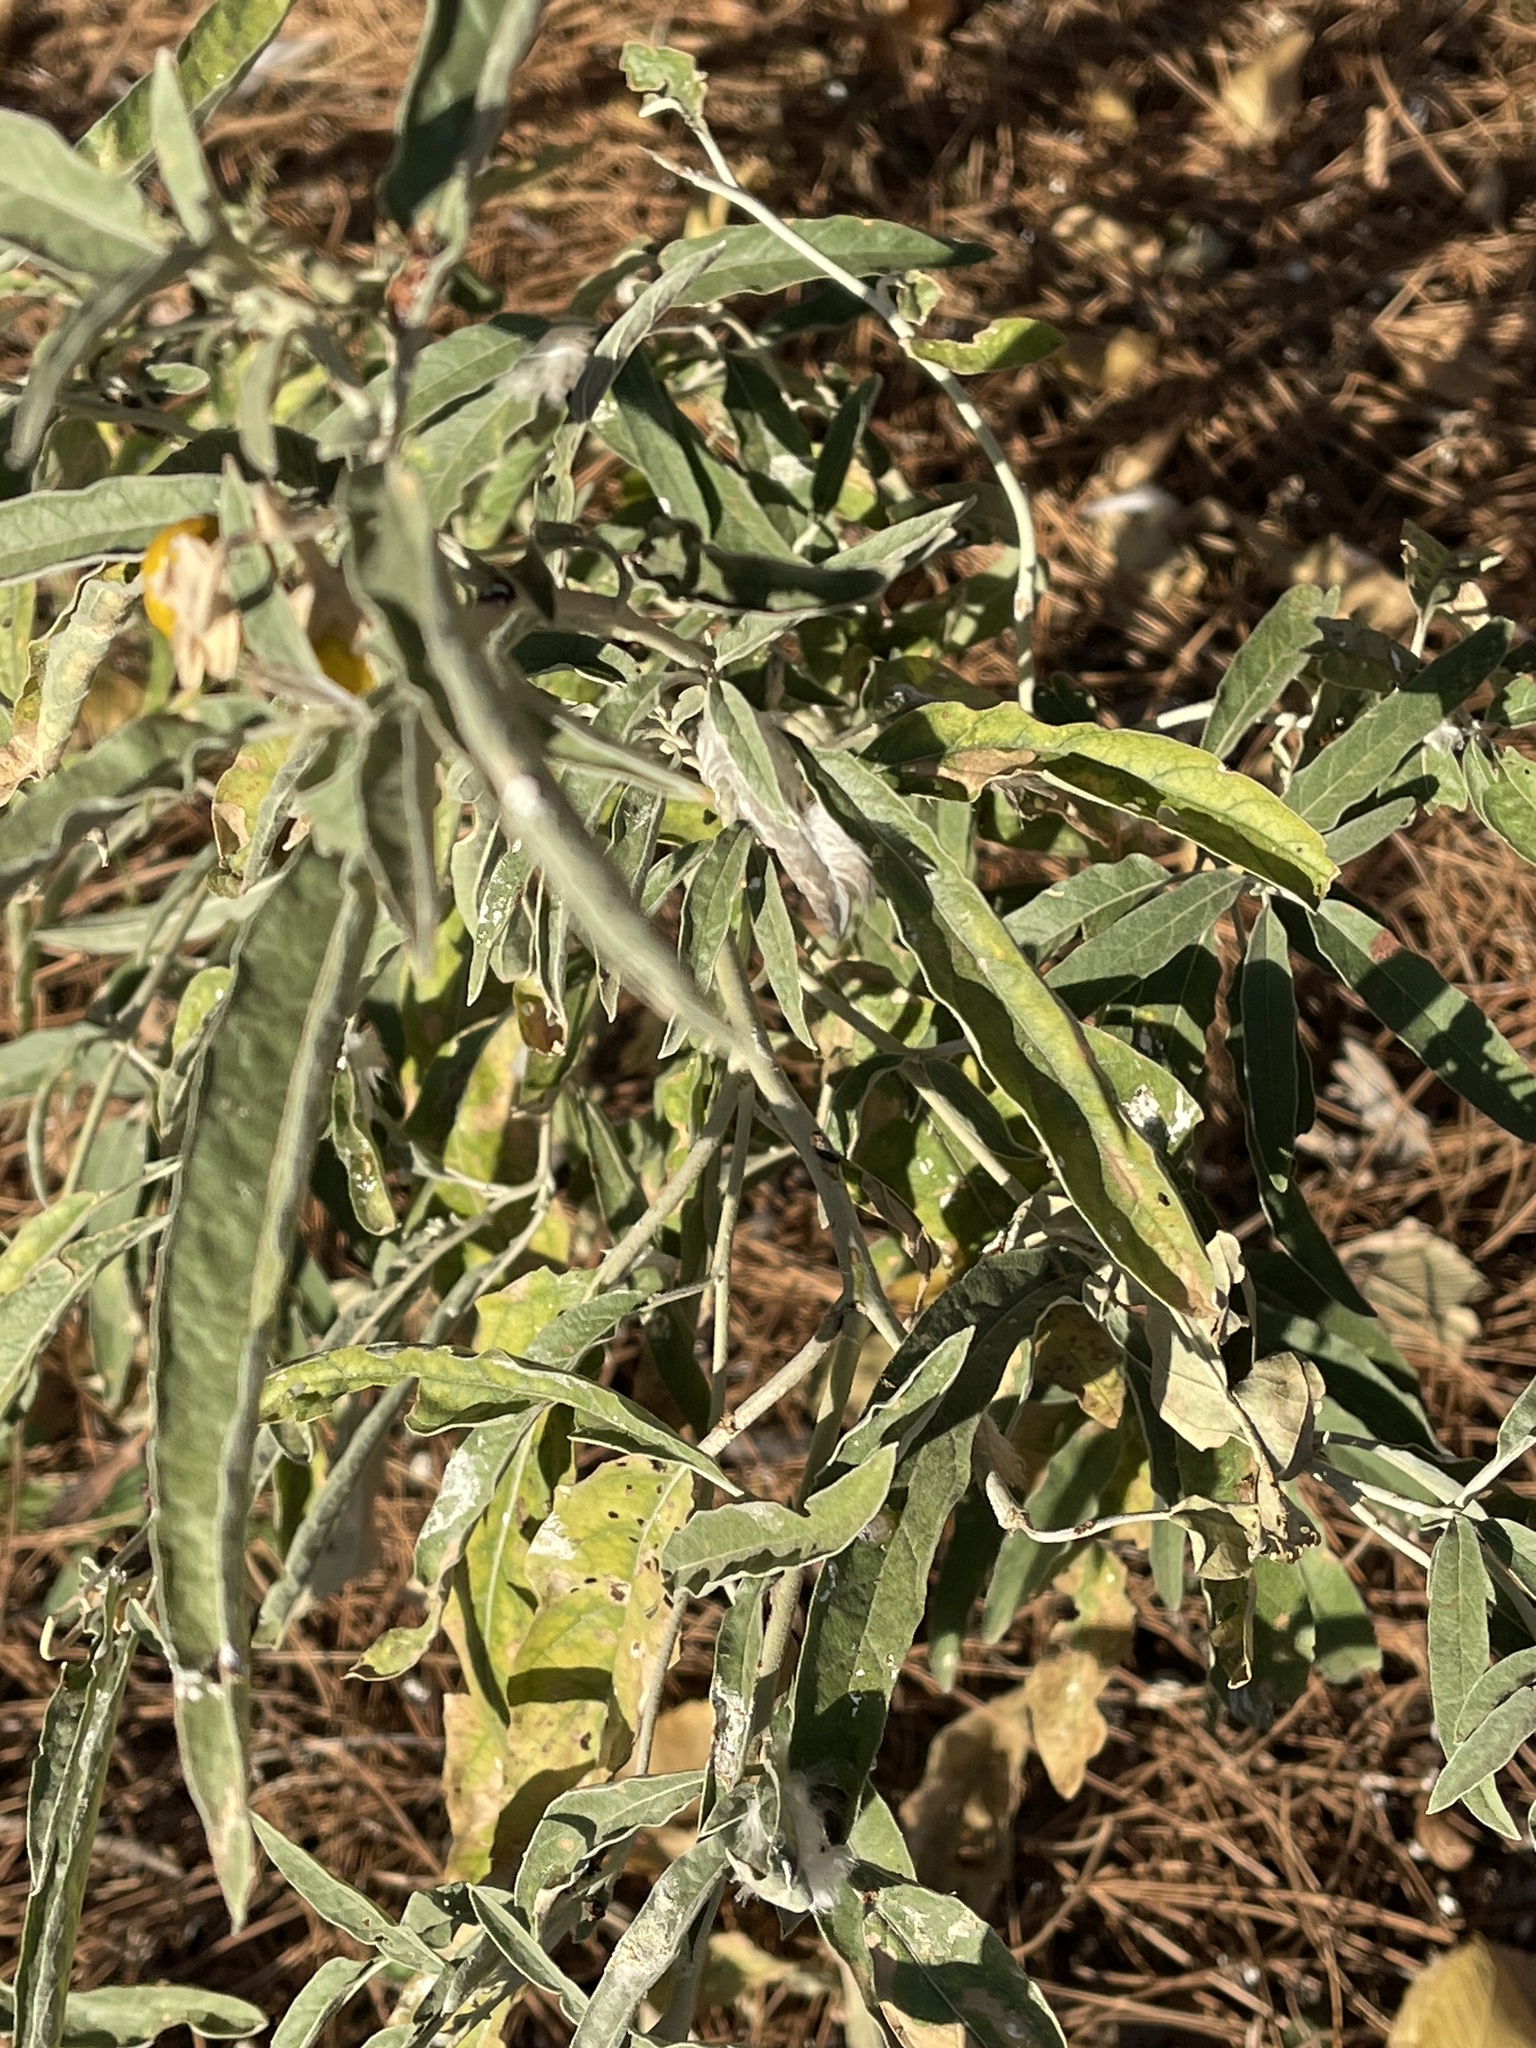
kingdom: Plantae
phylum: Tracheophyta
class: Magnoliopsida
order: Solanales
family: Solanaceae
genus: Solanum
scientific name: Solanum elaeagnifolium
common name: Silverleaf nightshade
